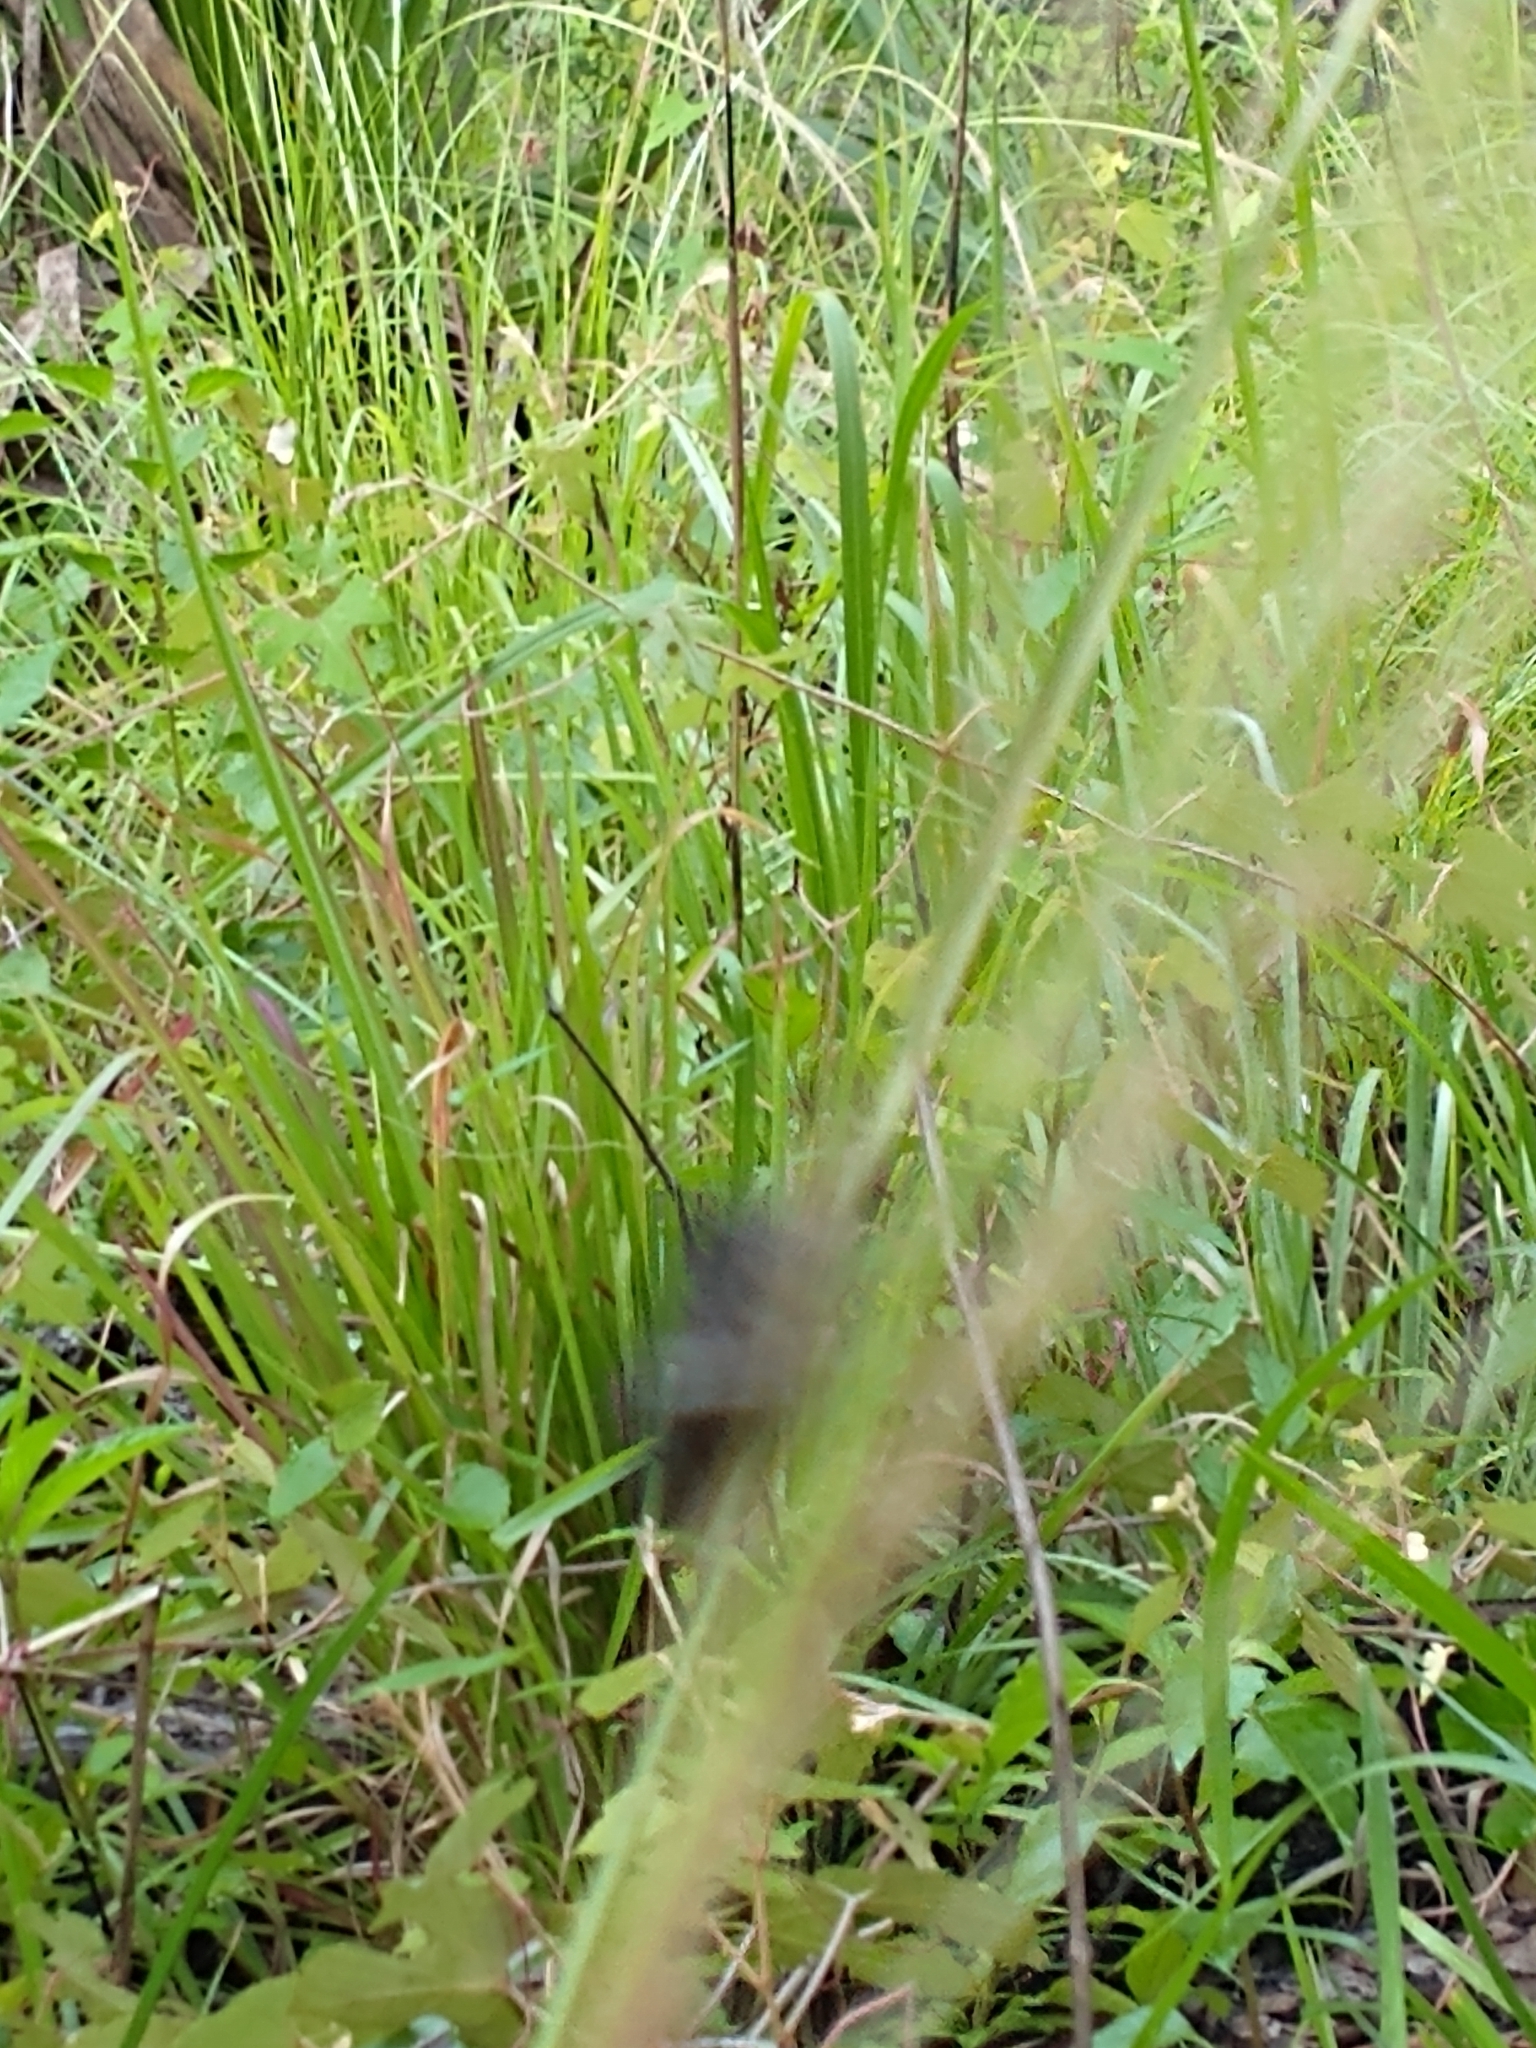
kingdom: Animalia
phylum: Arthropoda
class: Insecta
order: Hemiptera
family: Pentatomidae
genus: Proxys
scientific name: Proxys punctulatus
